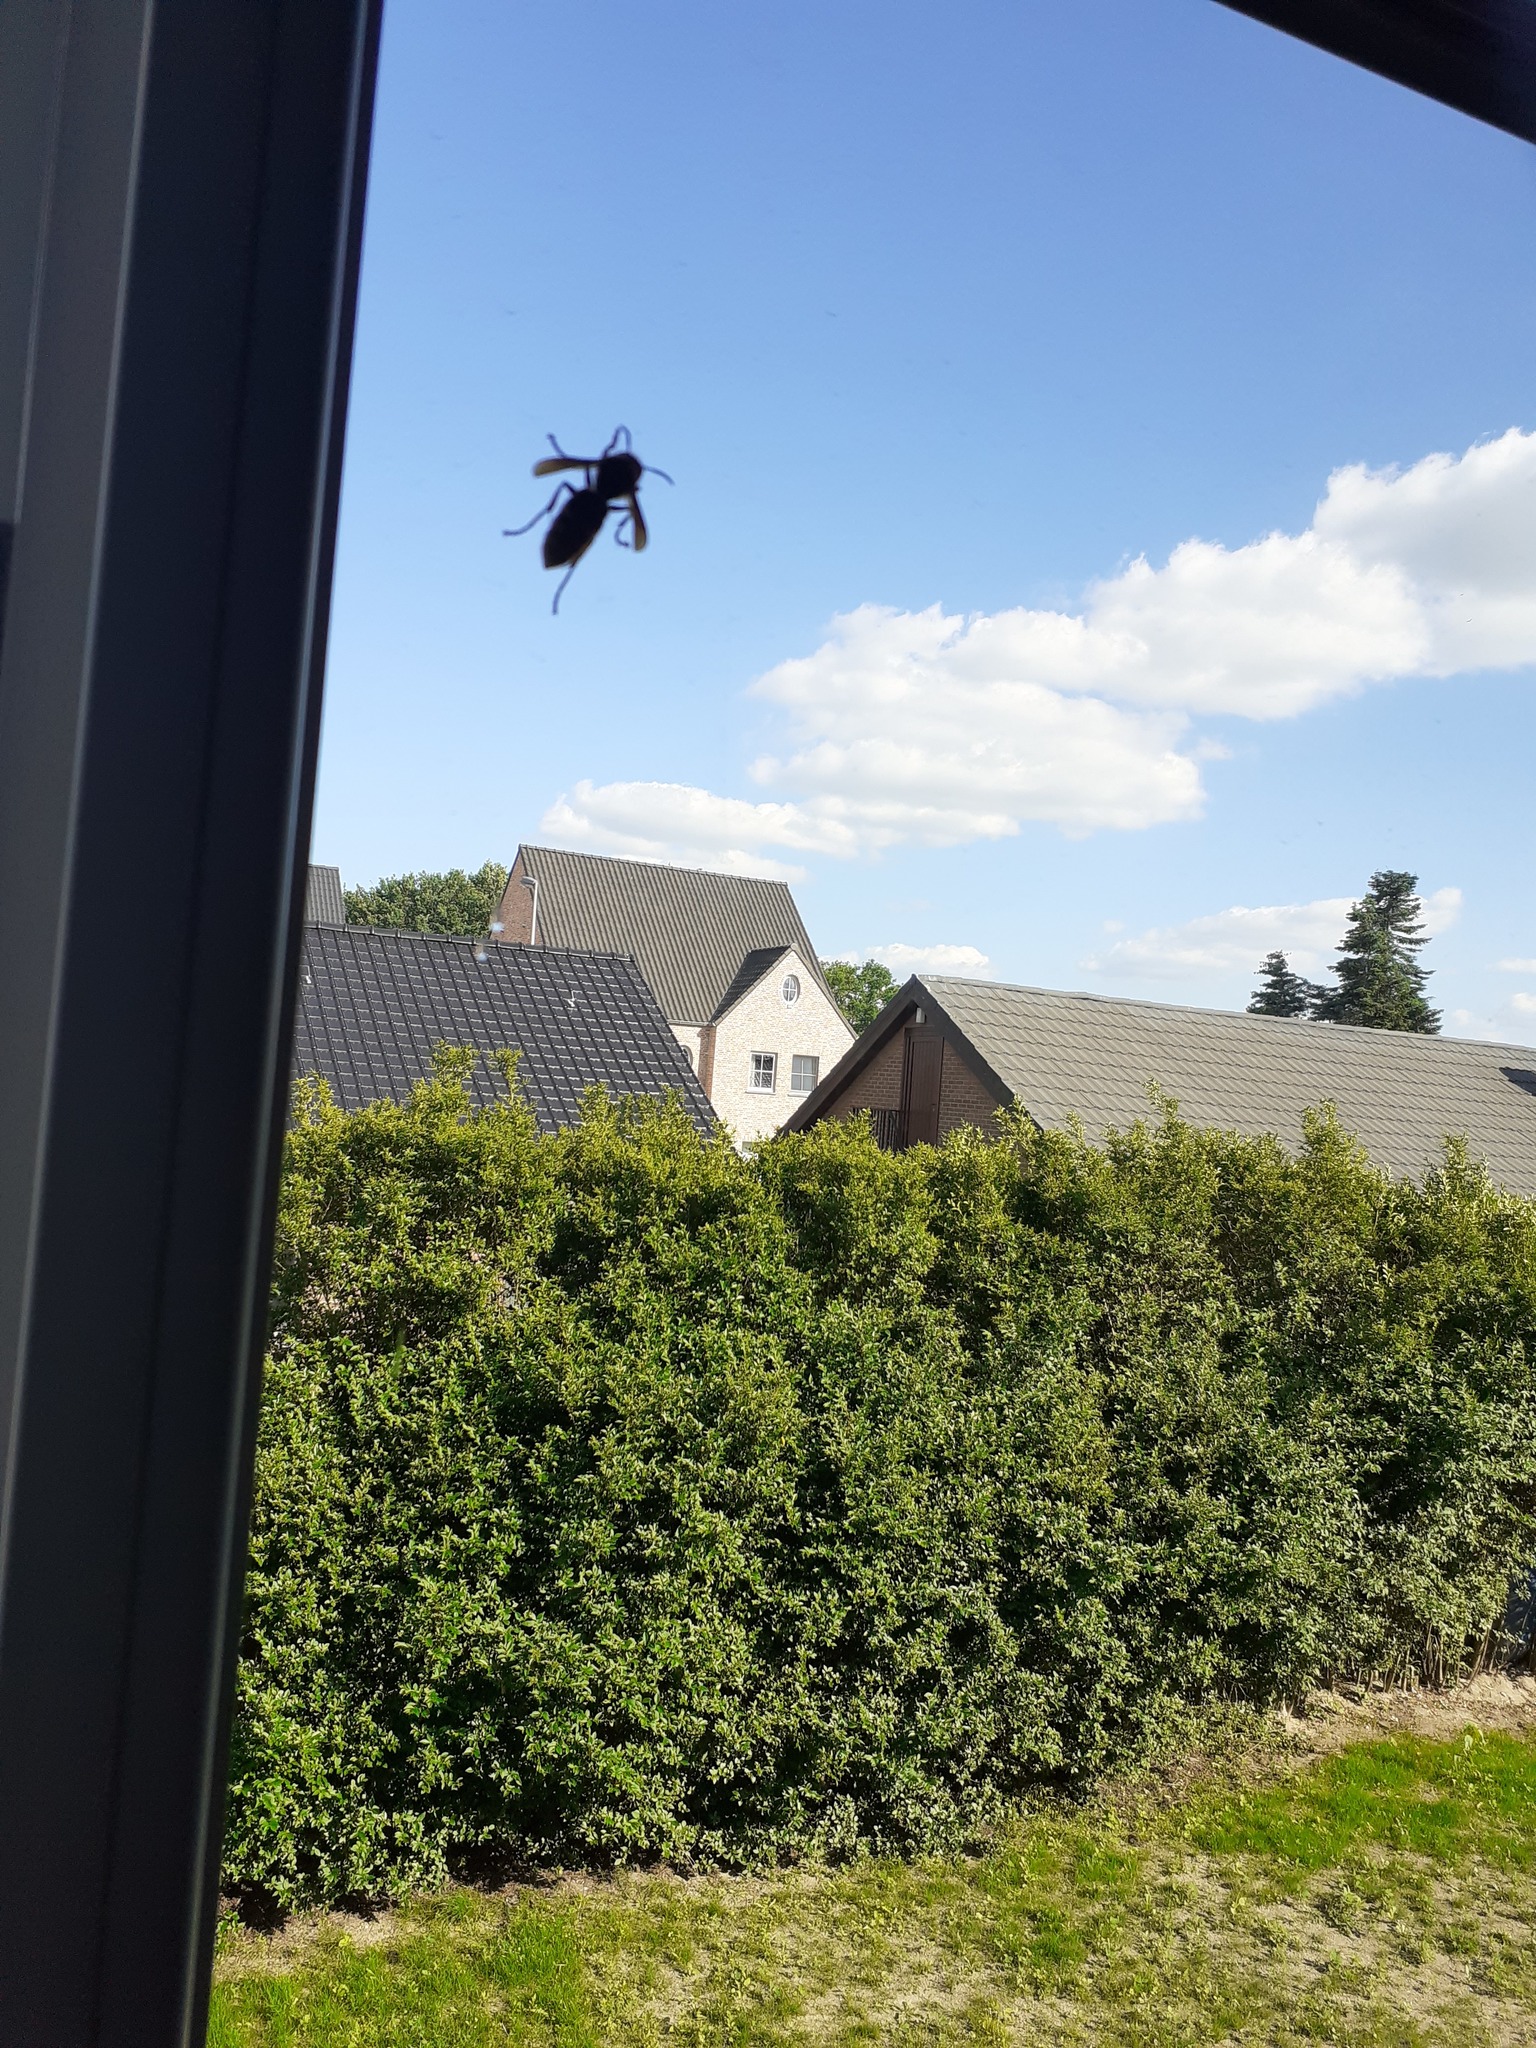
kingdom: Animalia
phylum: Arthropoda
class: Insecta
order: Hymenoptera
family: Vespidae
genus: Vespa
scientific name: Vespa crabro
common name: Hornet
